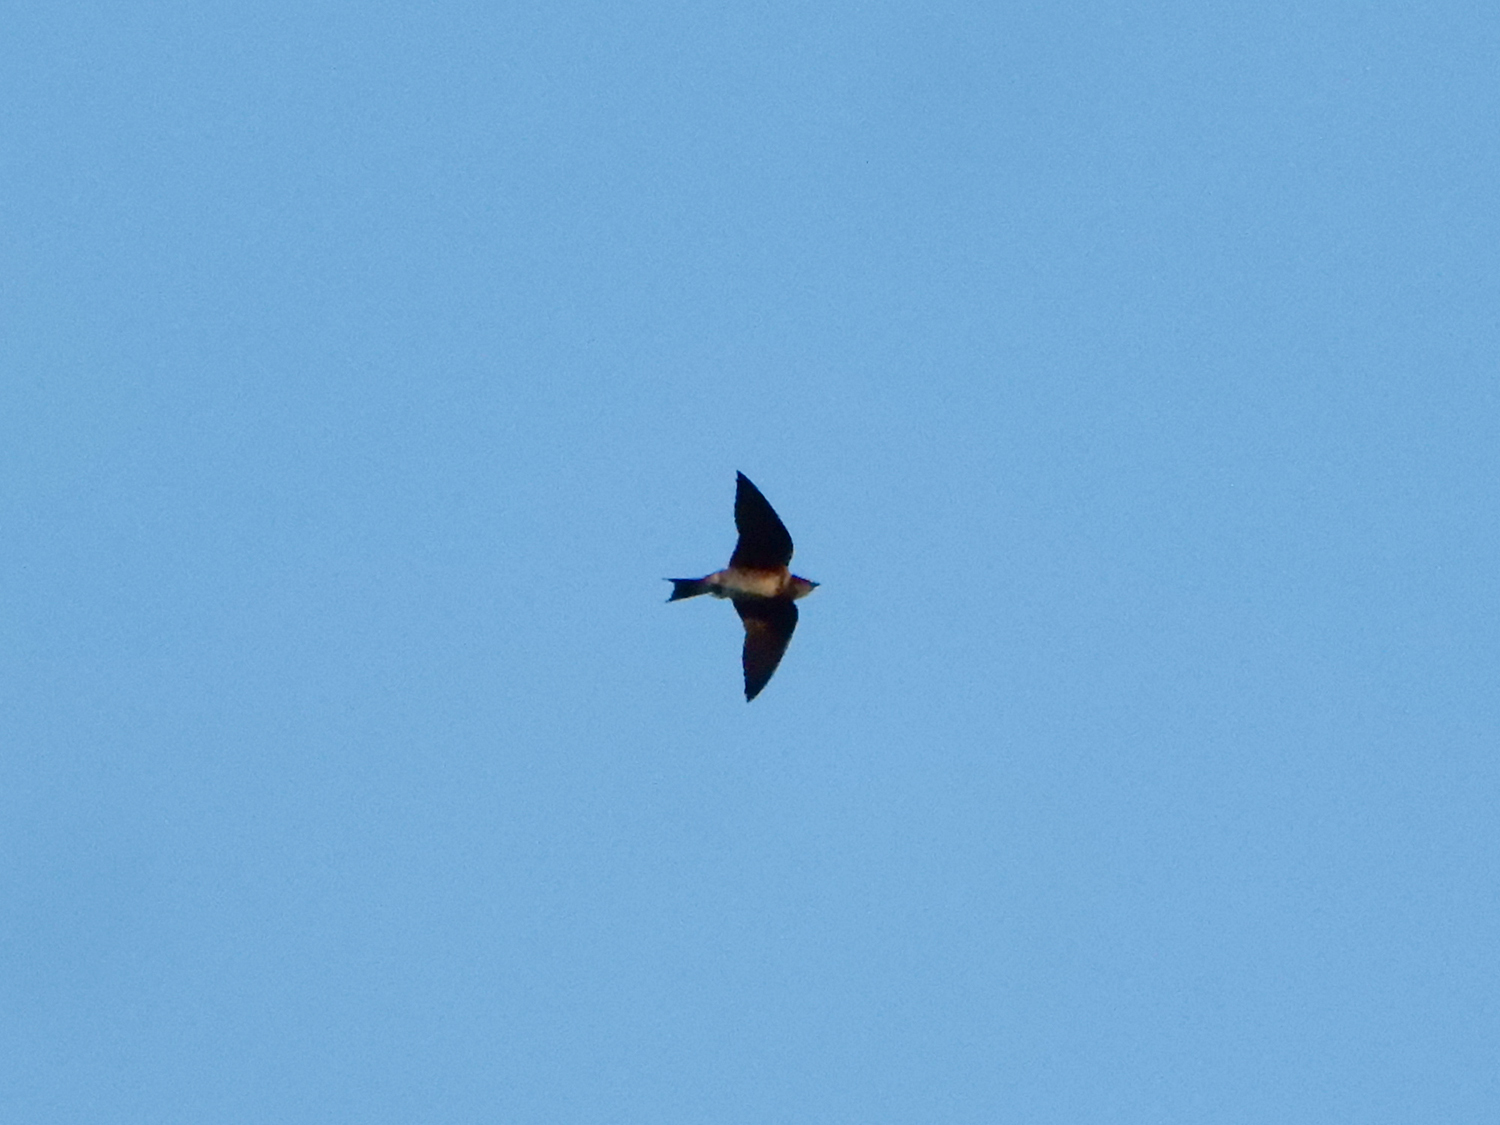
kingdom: Animalia
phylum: Chordata
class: Aves
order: Passeriformes
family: Hirundinidae
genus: Progne
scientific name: Progne subis
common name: Purple martin
